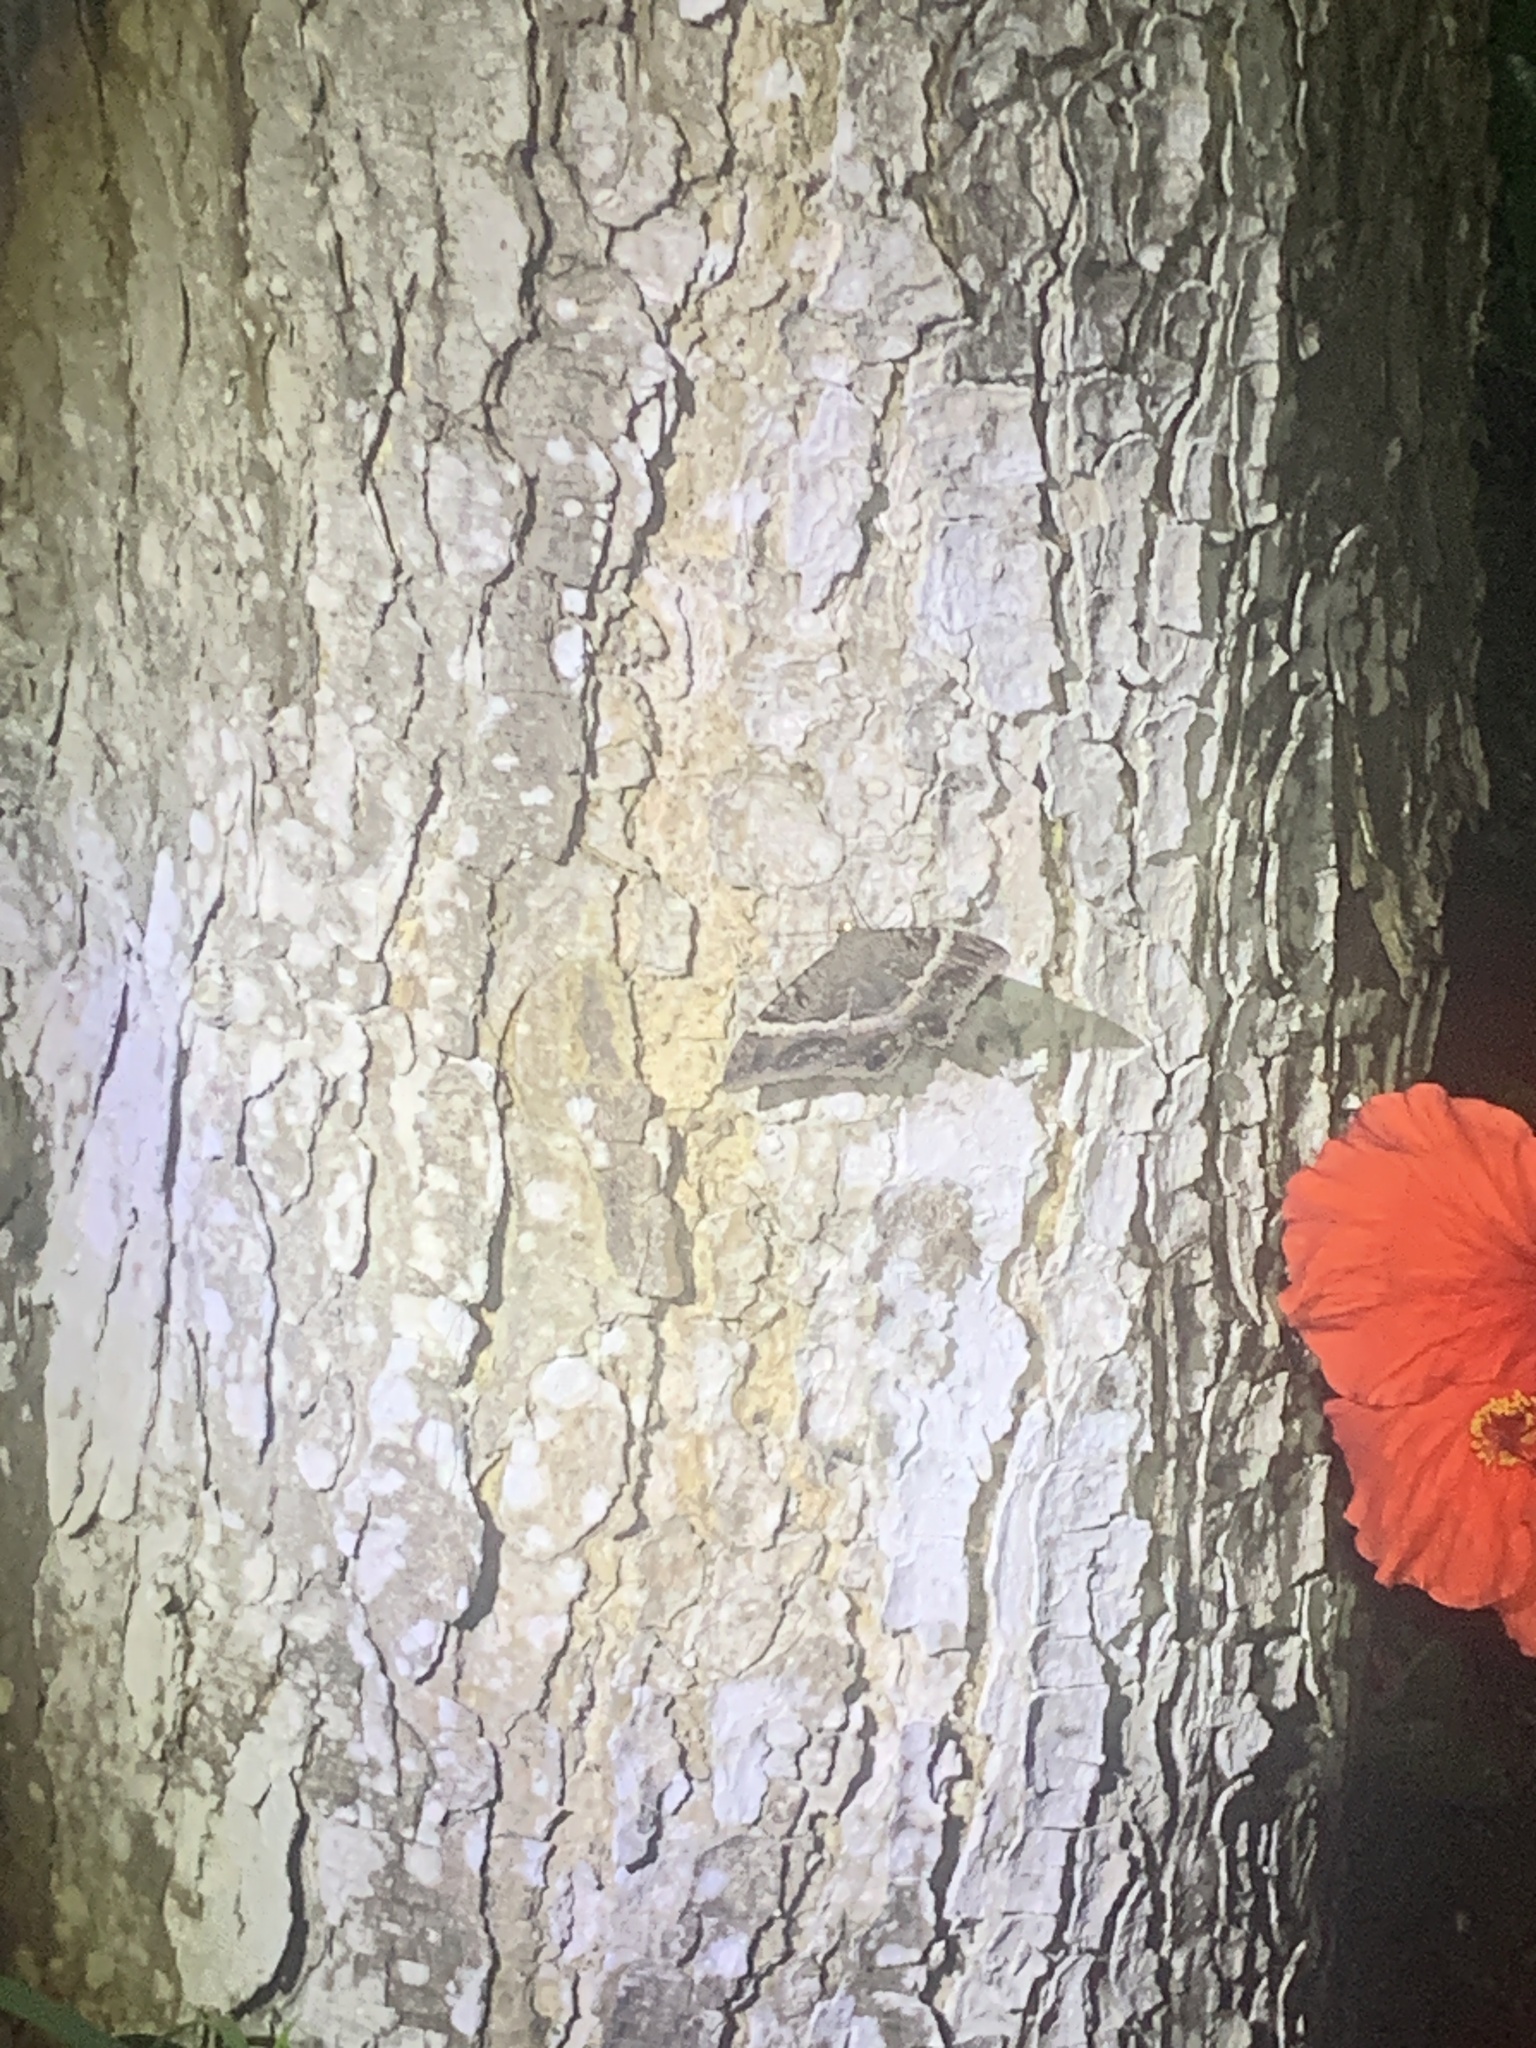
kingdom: Animalia
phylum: Arthropoda
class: Insecta
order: Lepidoptera
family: Erebidae
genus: Ascalapha
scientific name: Ascalapha odorata
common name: Black witch
